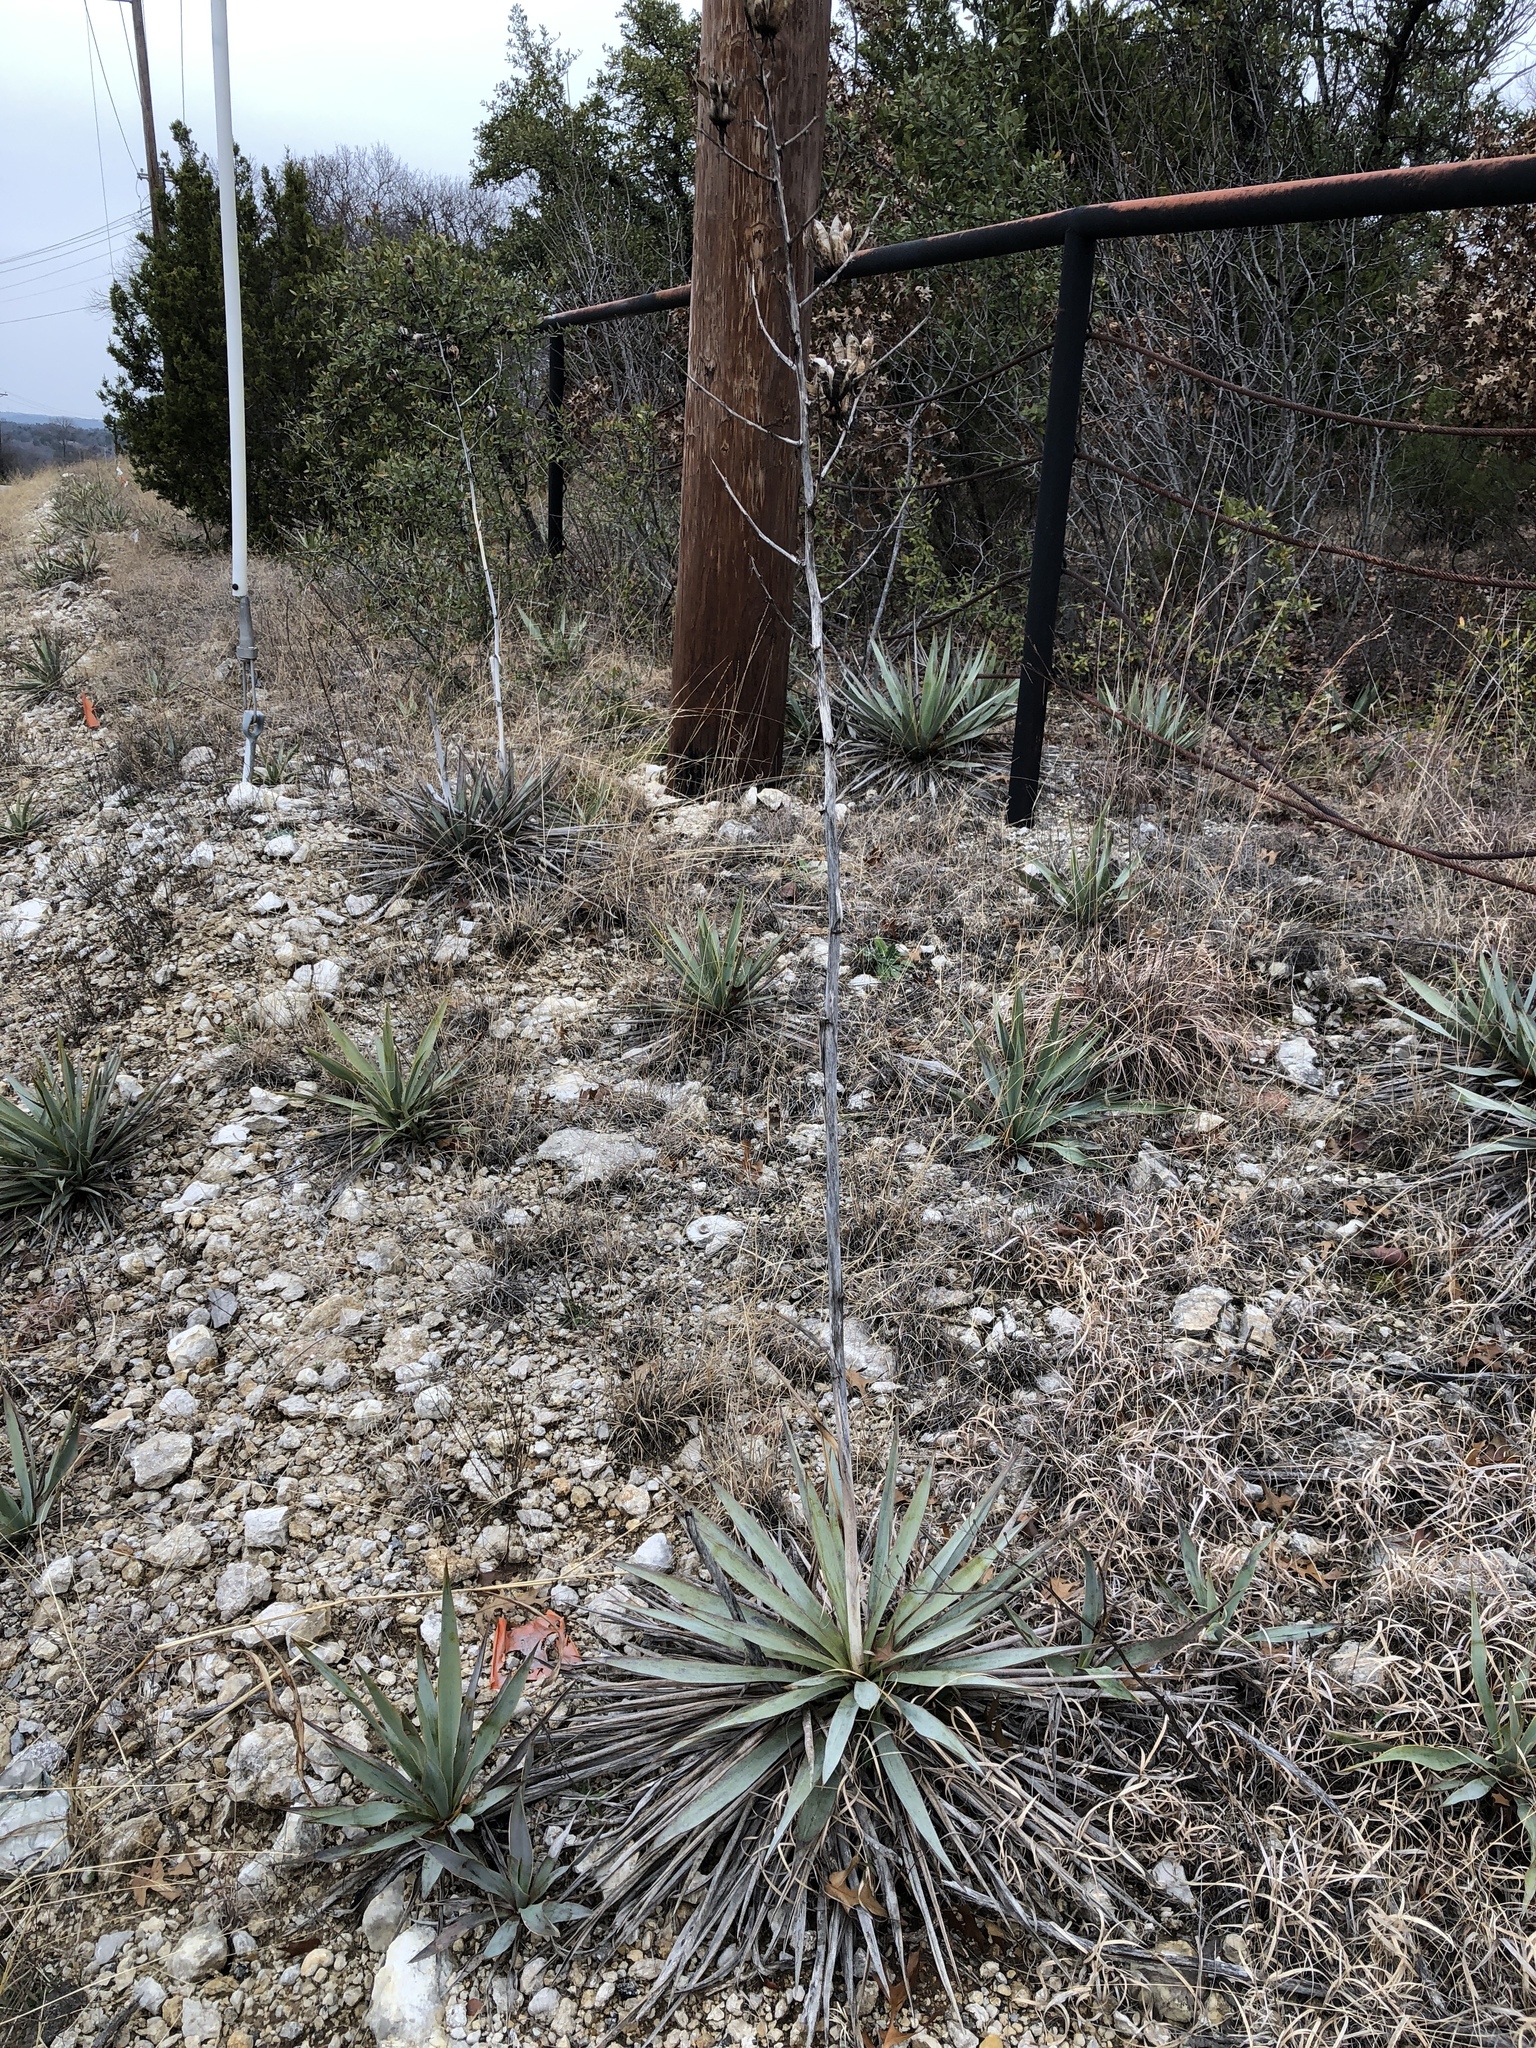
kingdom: Plantae
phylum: Tracheophyta
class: Liliopsida
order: Asparagales
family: Asparagaceae
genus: Yucca
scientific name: Yucca pallida
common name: Pale leaf yucca
